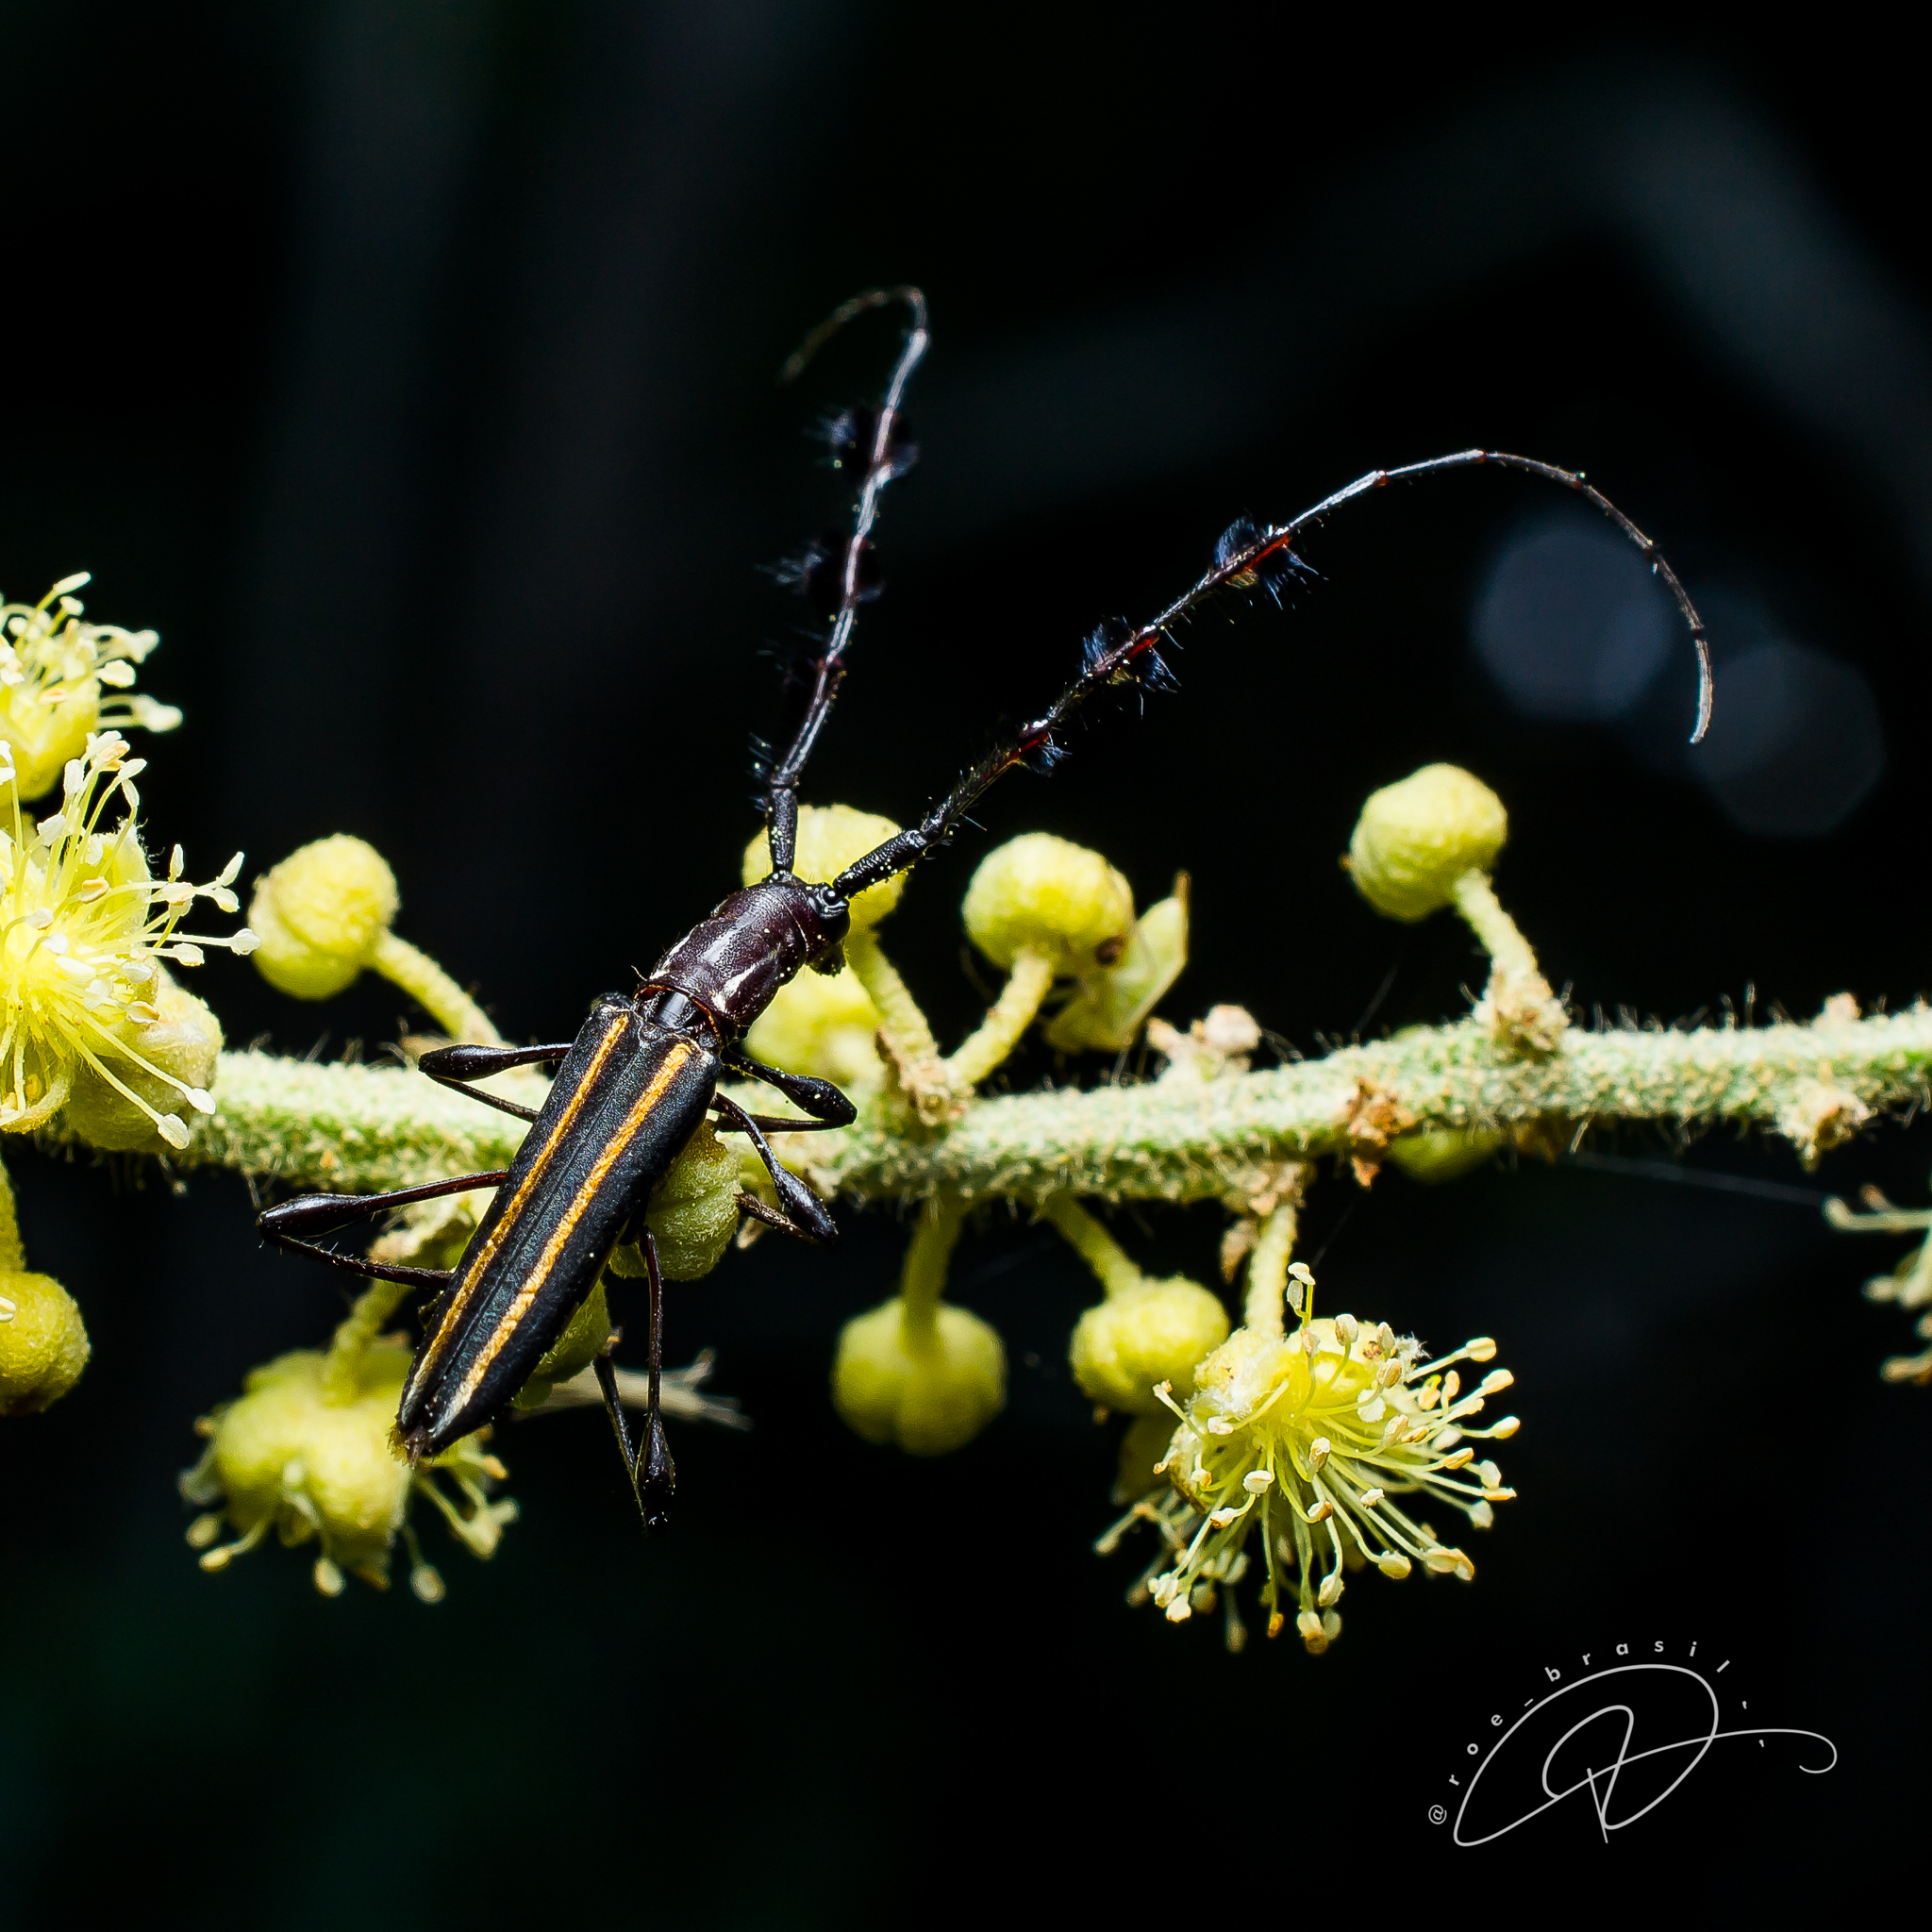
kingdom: Animalia
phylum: Arthropoda
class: Insecta
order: Coleoptera
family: Cerambycidae
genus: Disaulax
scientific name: Disaulax hirsuticornis
